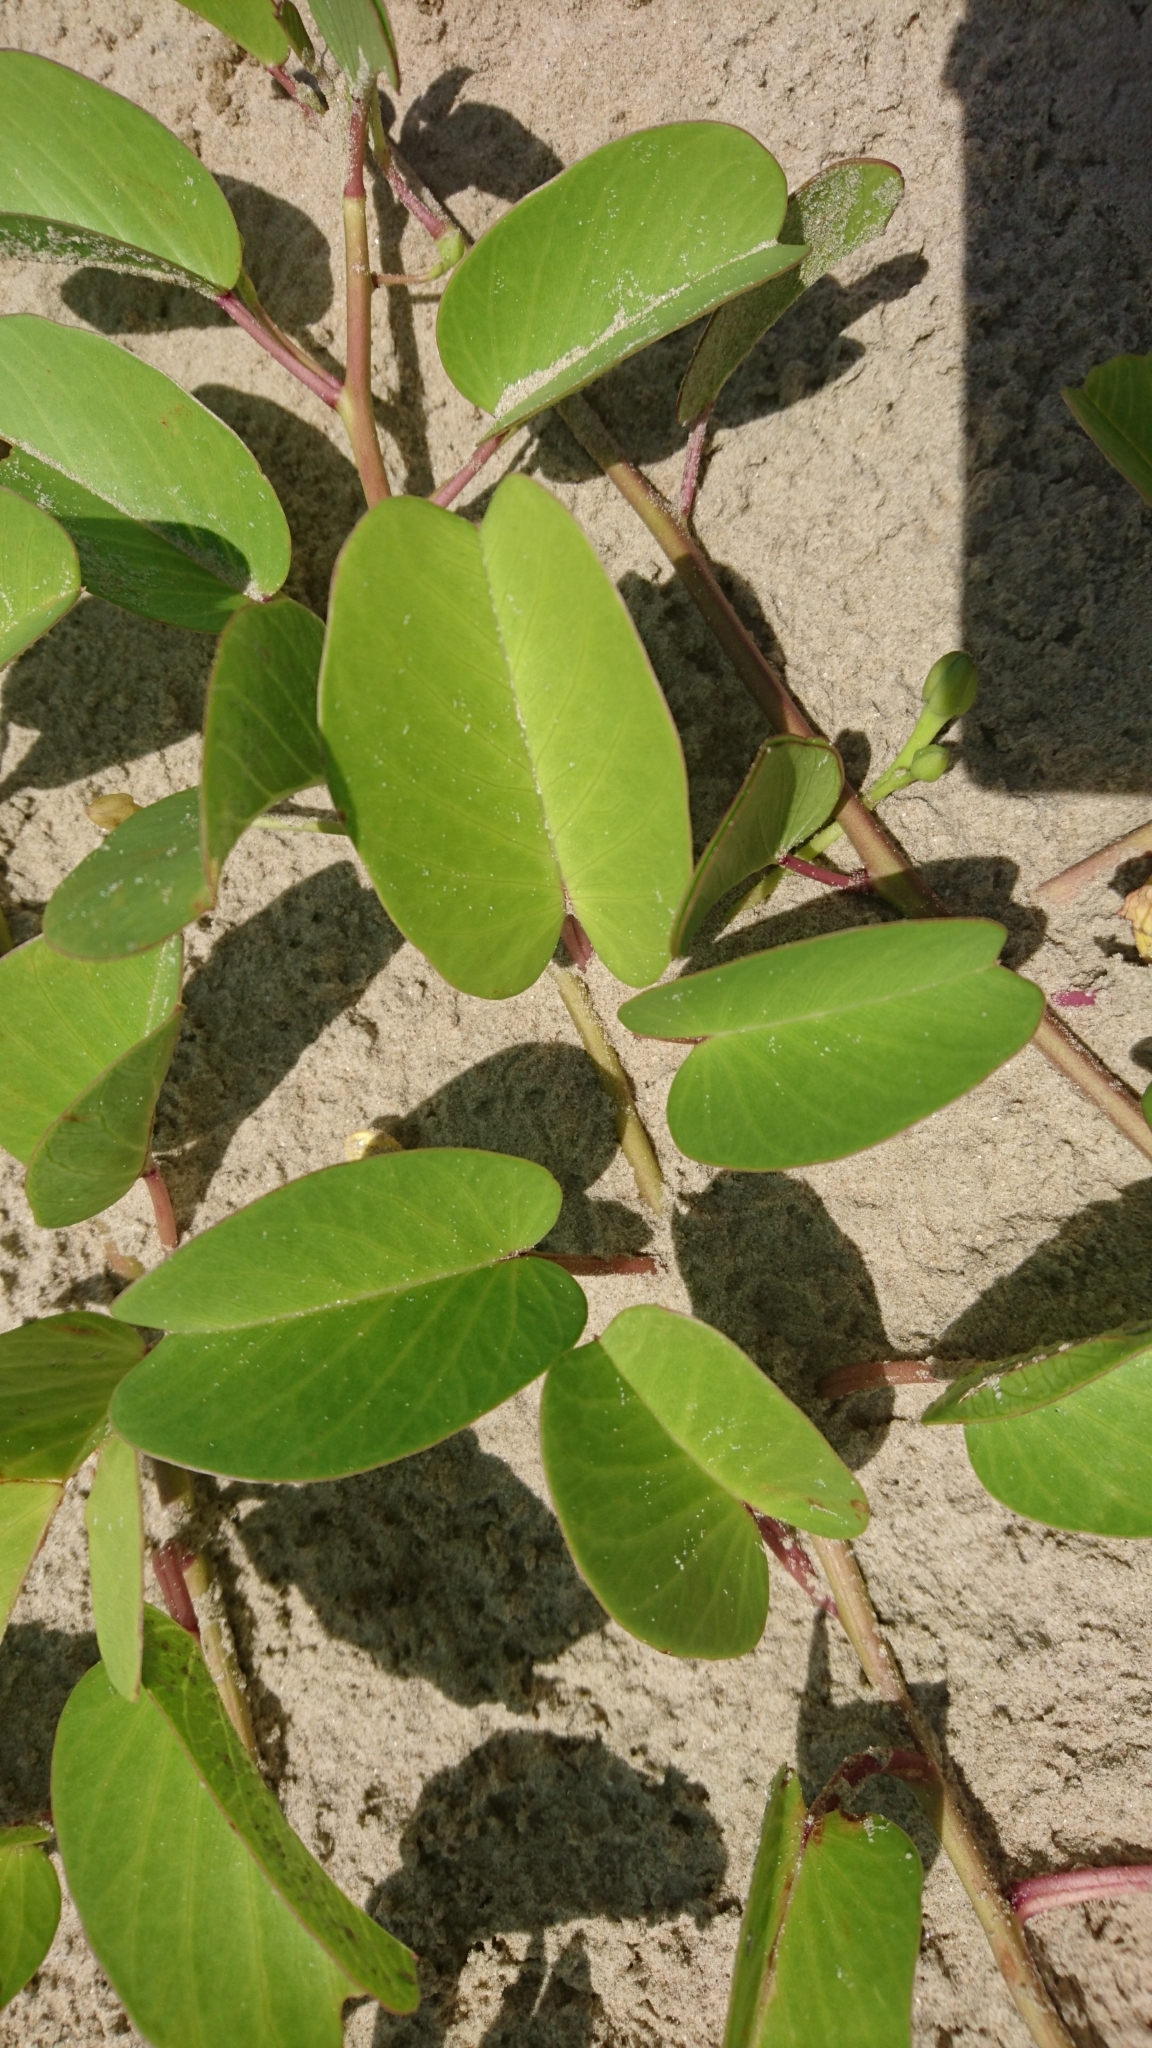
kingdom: Plantae
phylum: Tracheophyta
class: Magnoliopsida
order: Solanales
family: Convolvulaceae
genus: Ipomoea
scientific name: Ipomoea pes-caprae
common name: Beach morning glory
